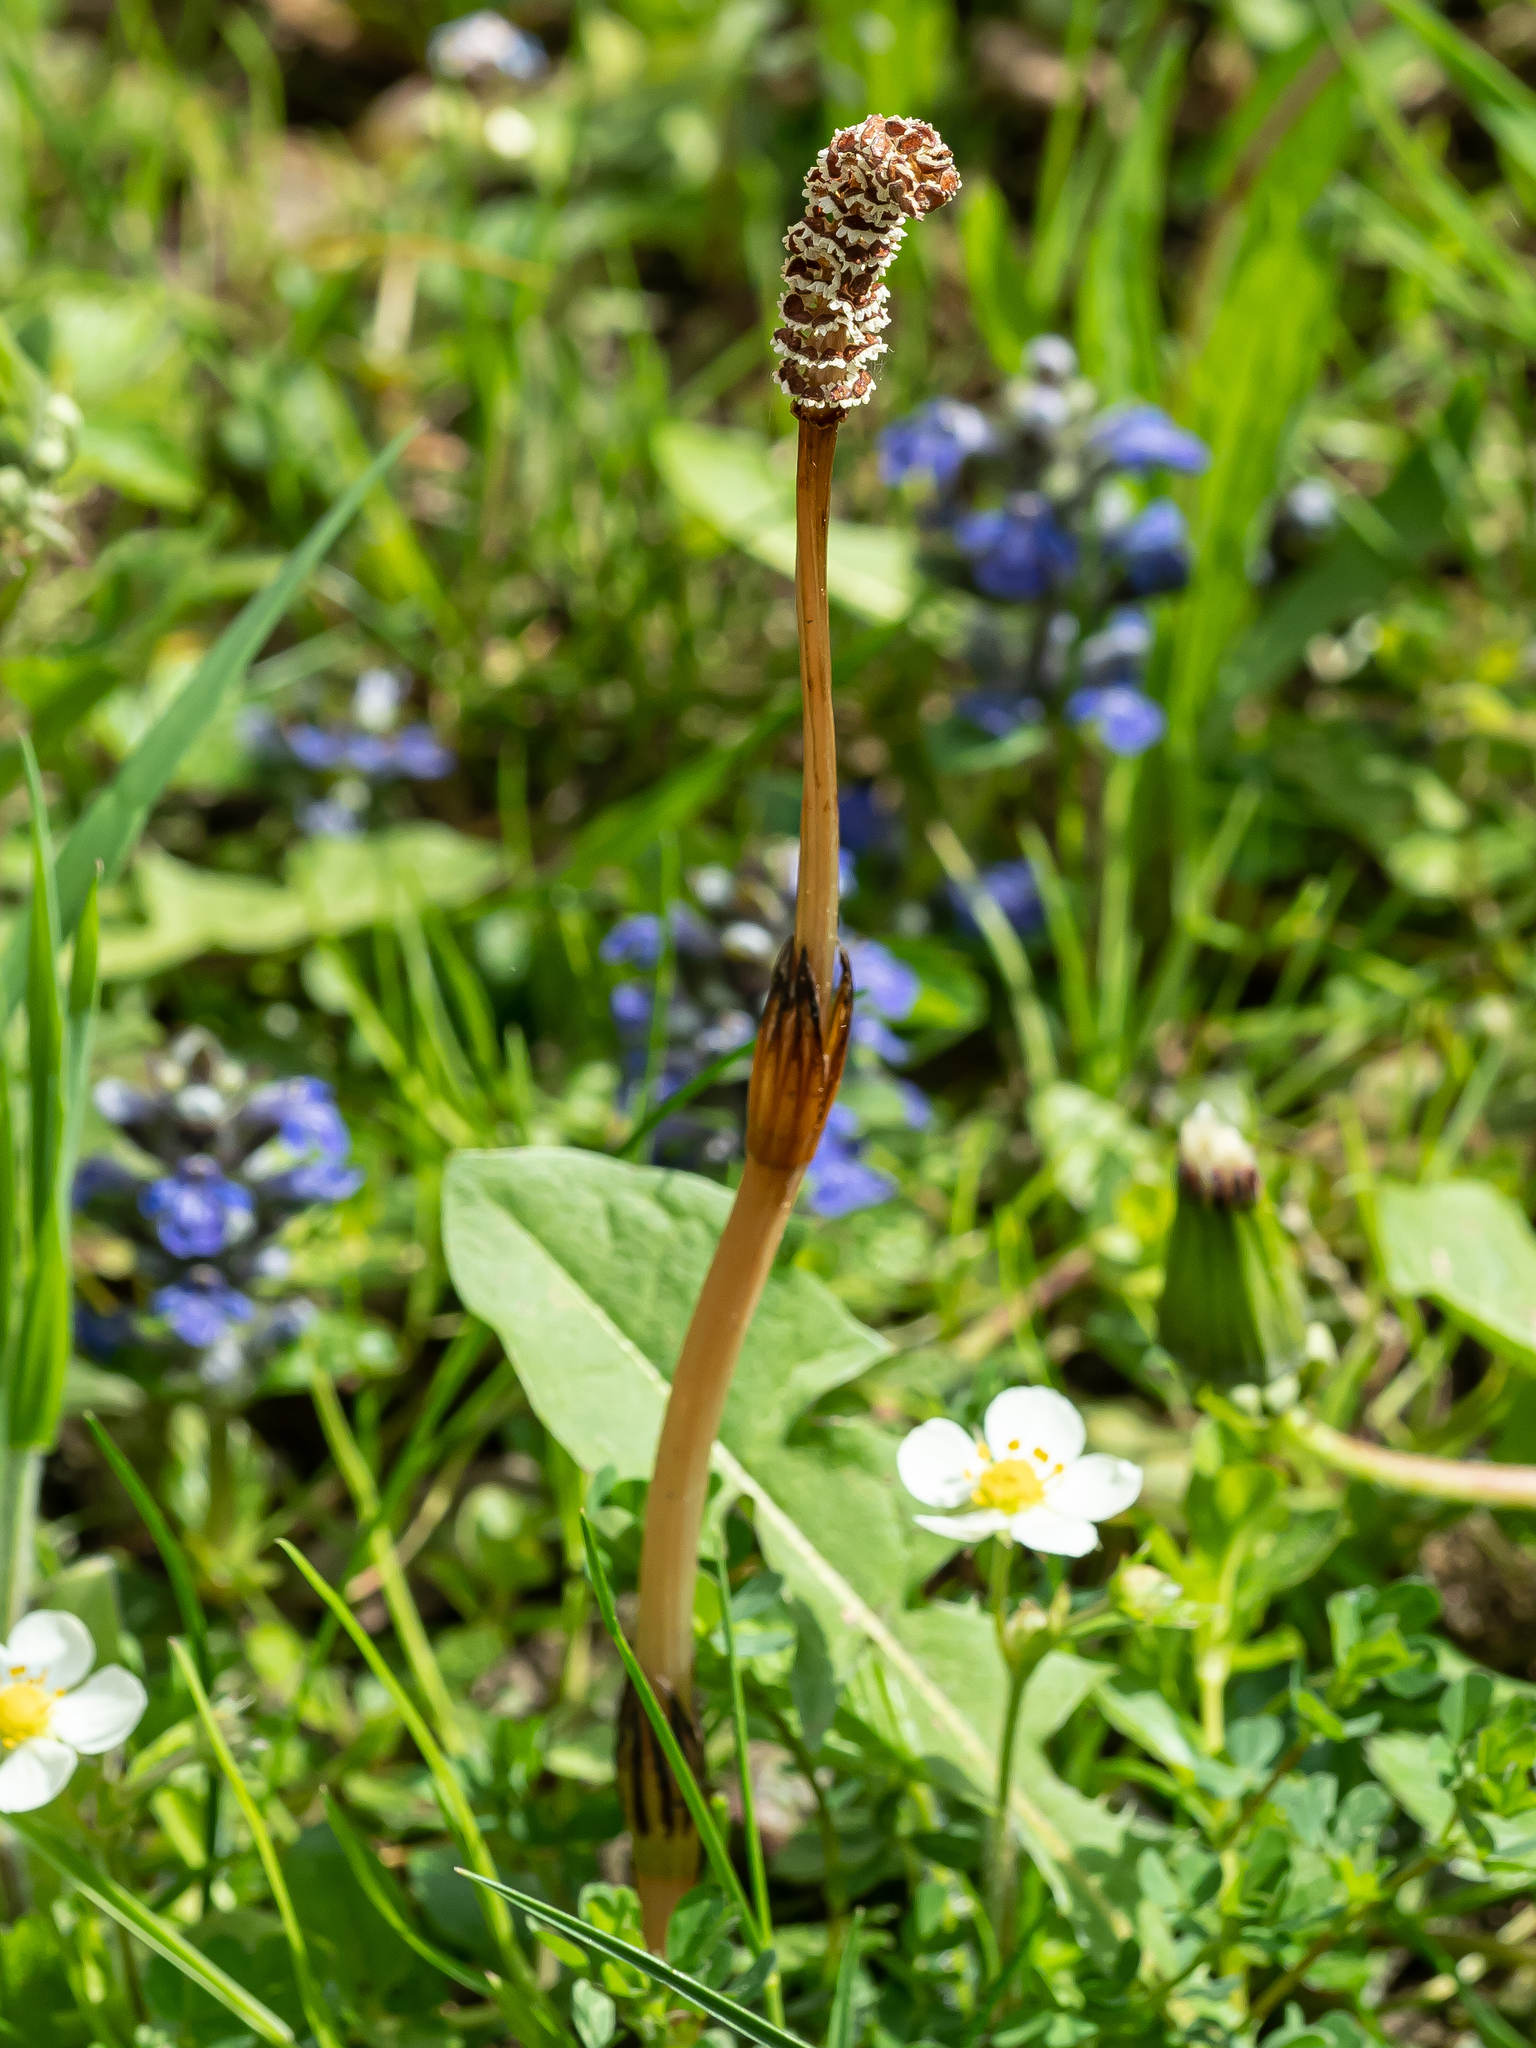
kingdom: Plantae
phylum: Tracheophyta
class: Polypodiopsida
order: Equisetales
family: Equisetaceae
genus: Equisetum
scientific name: Equisetum arvense
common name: Field horsetail
